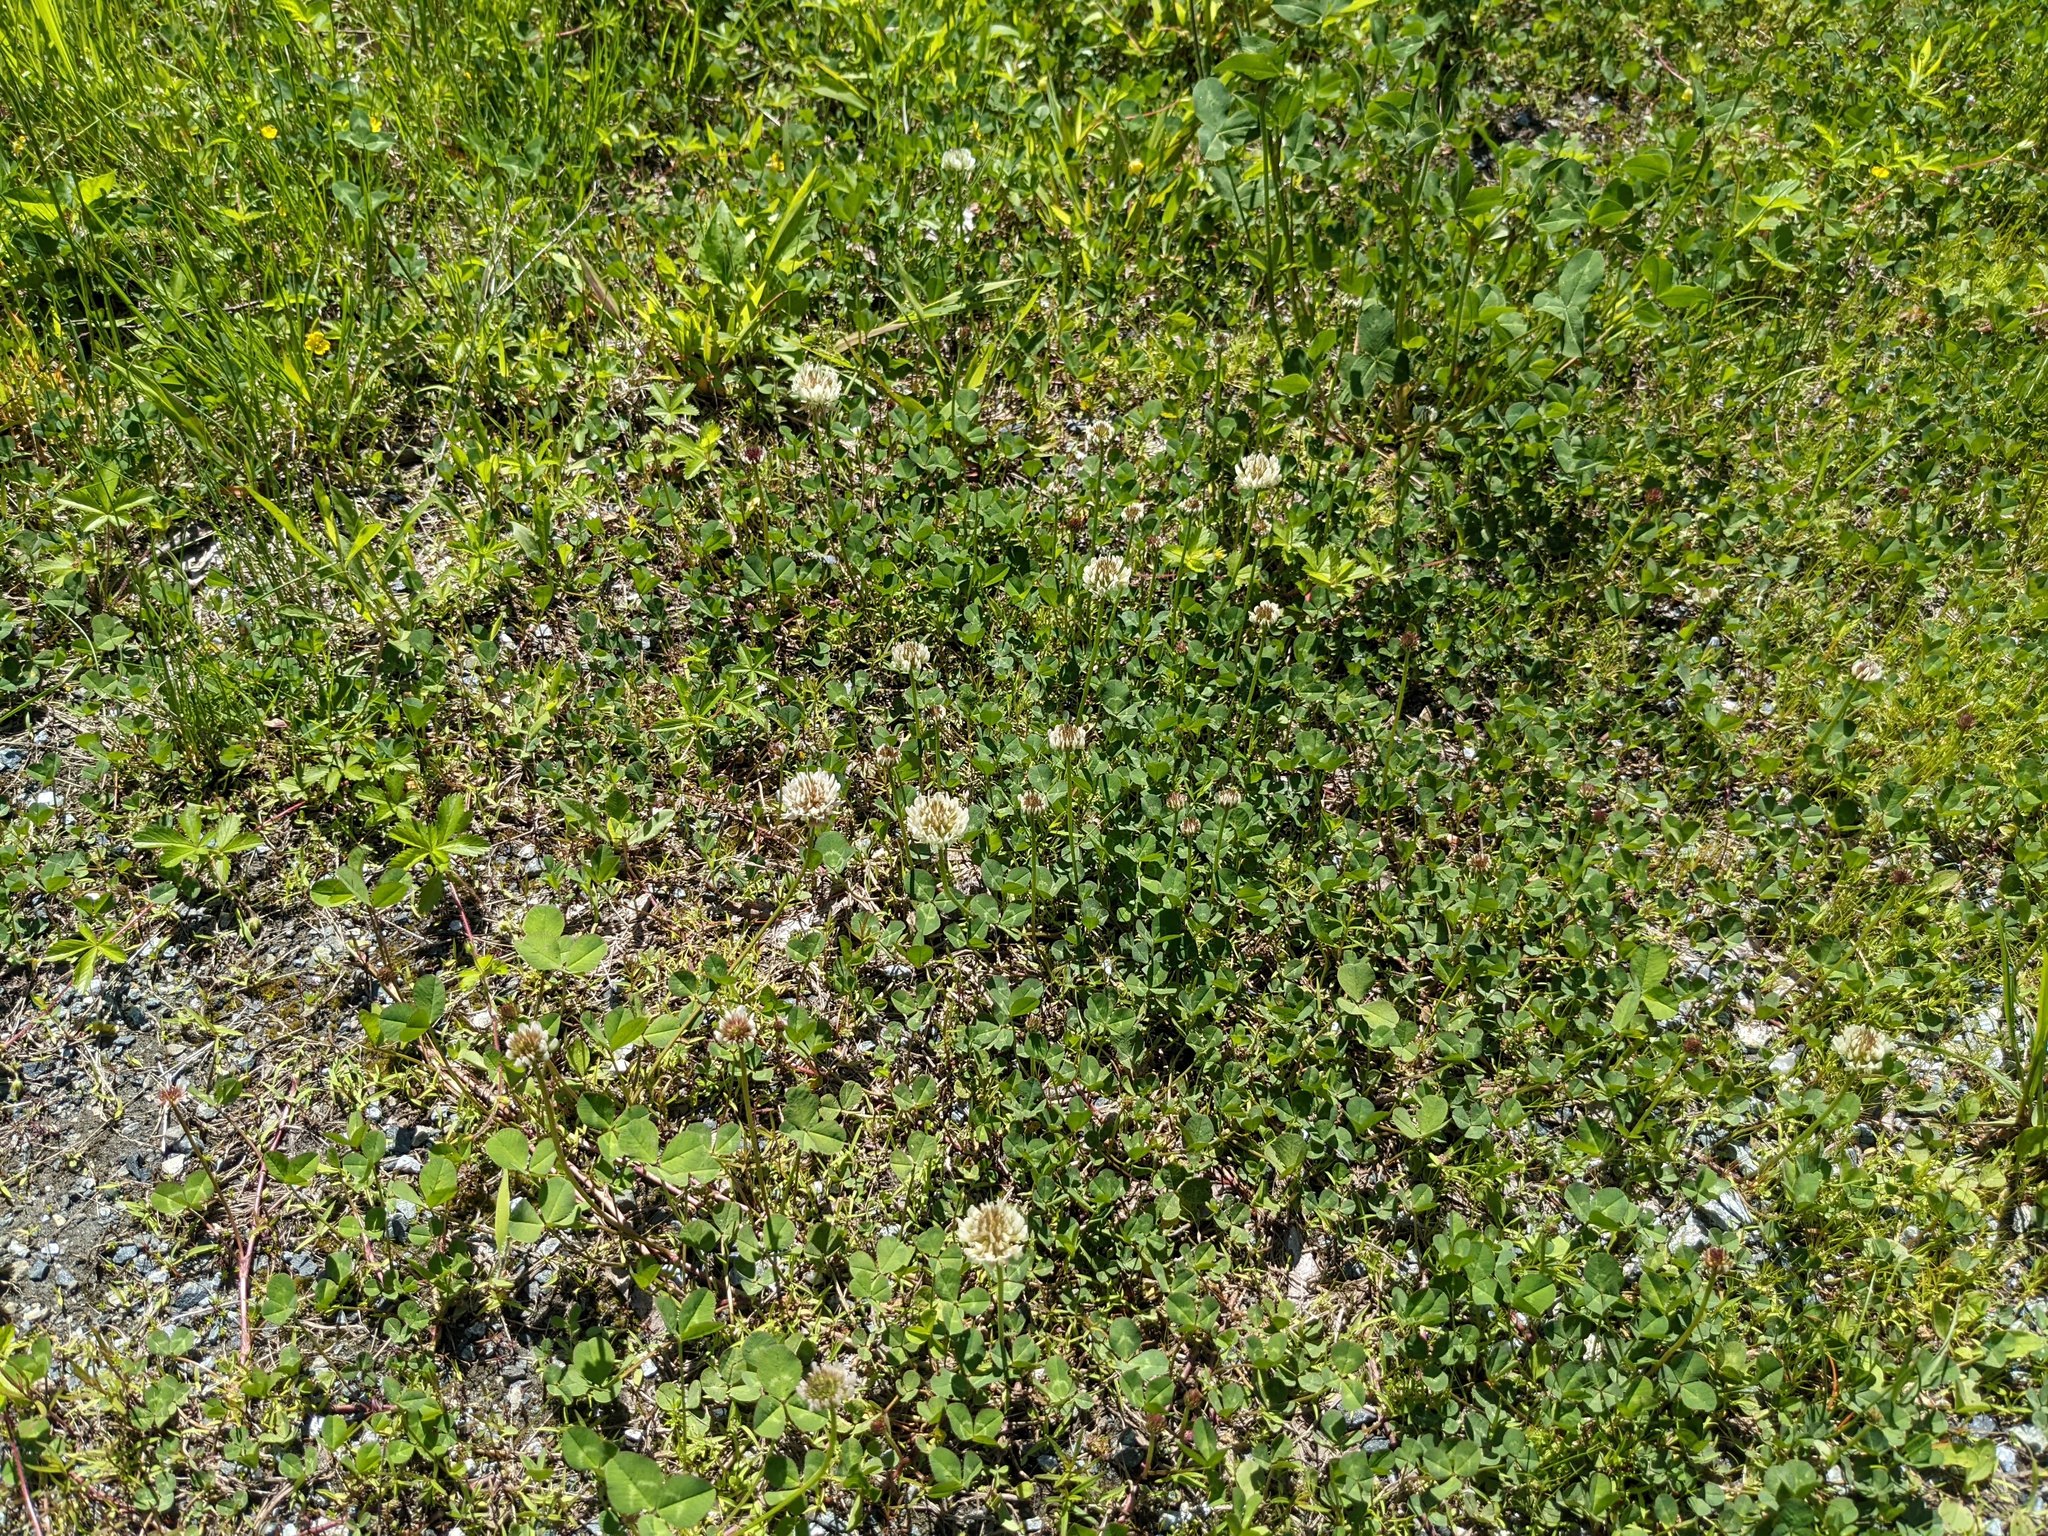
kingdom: Plantae
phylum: Tracheophyta
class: Magnoliopsida
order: Fabales
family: Fabaceae
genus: Trifolium
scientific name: Trifolium repens
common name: White clover
